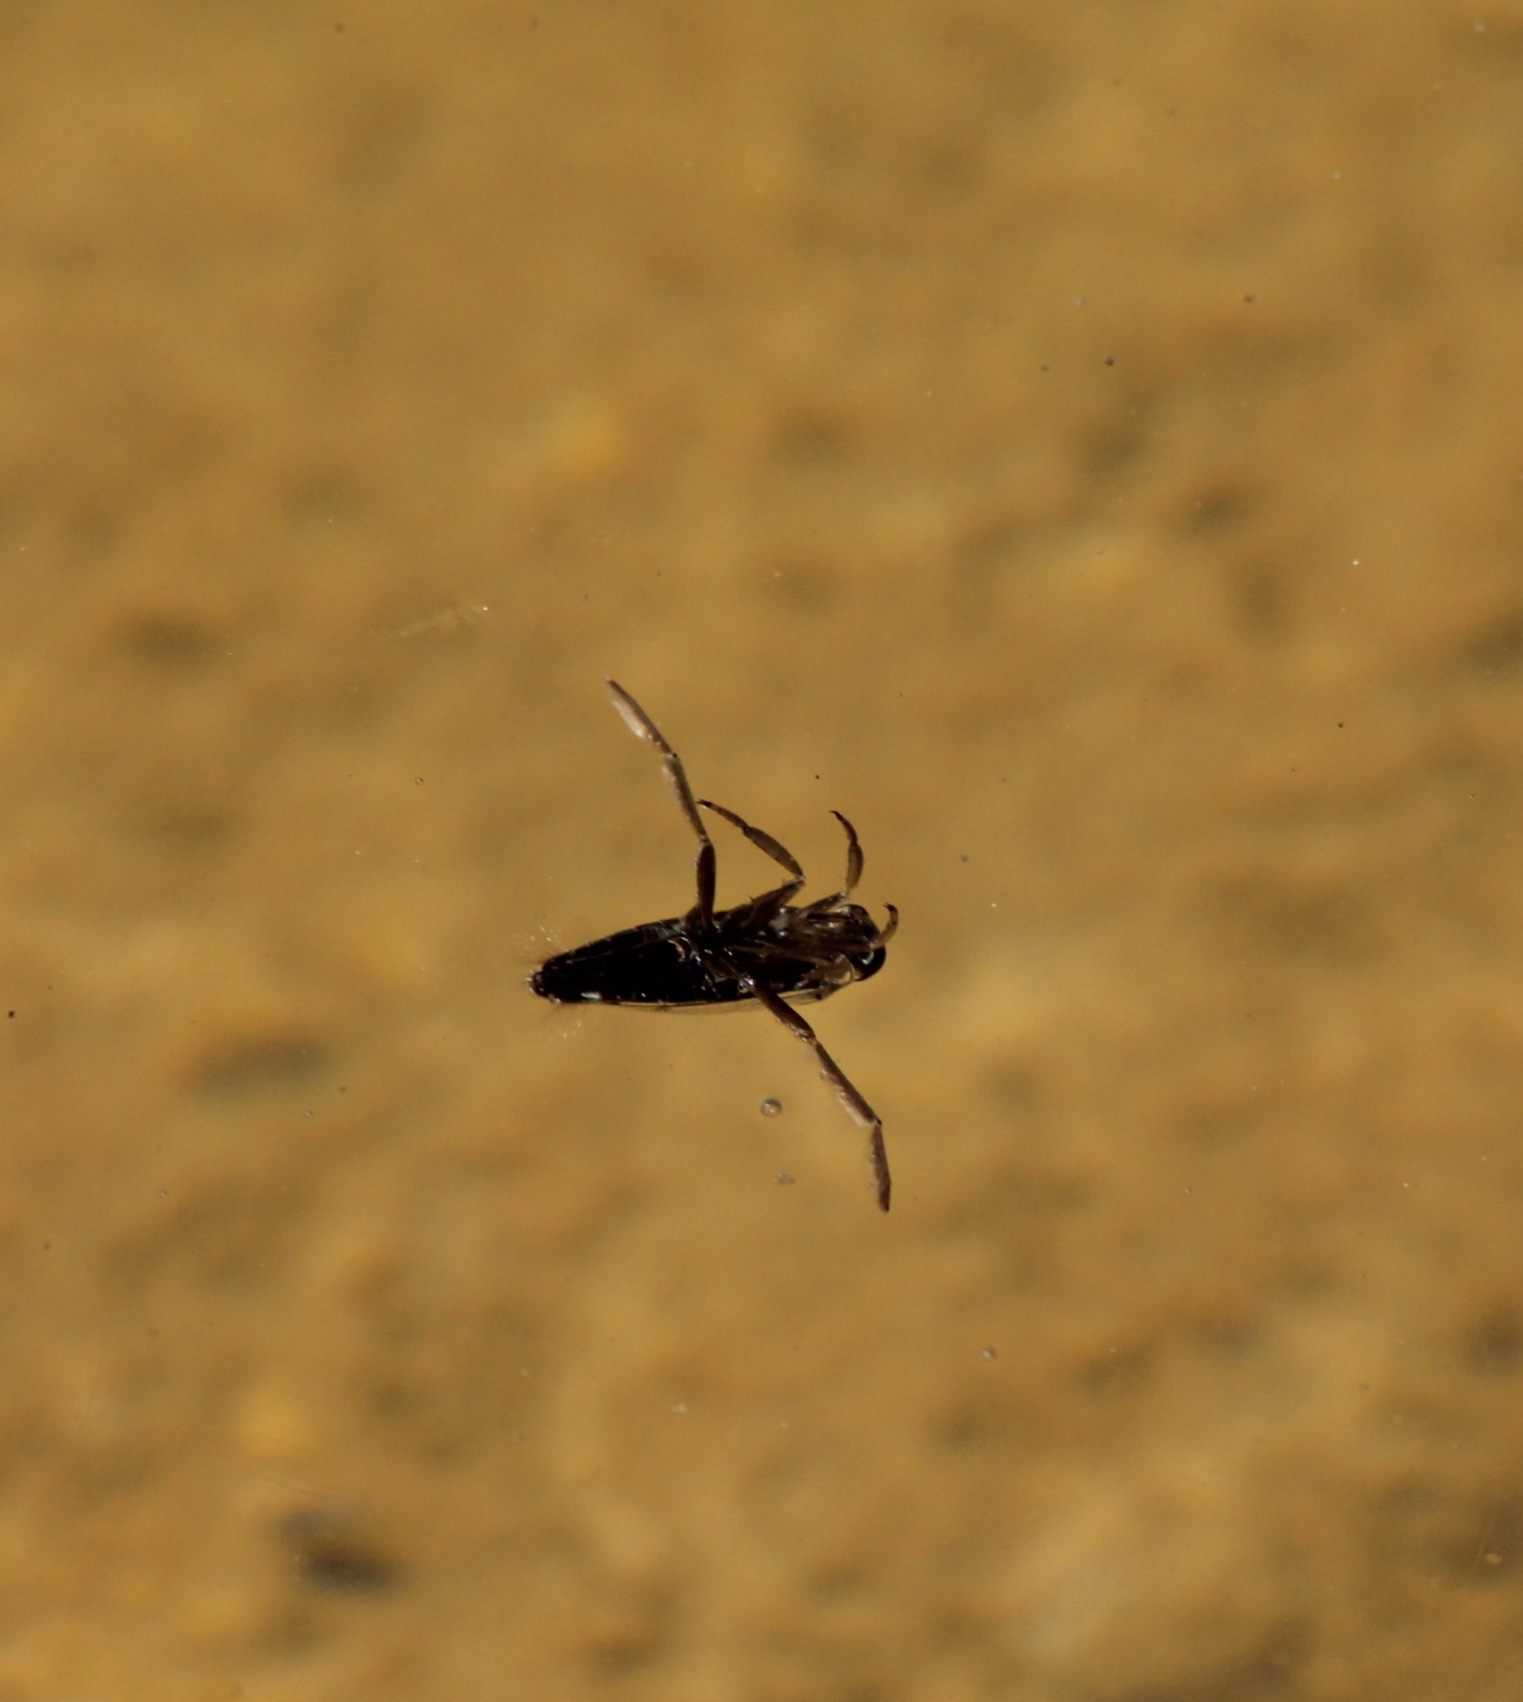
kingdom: Animalia
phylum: Arthropoda
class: Insecta
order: Hemiptera
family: Notonectidae
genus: Notonecta
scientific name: Notonecta
